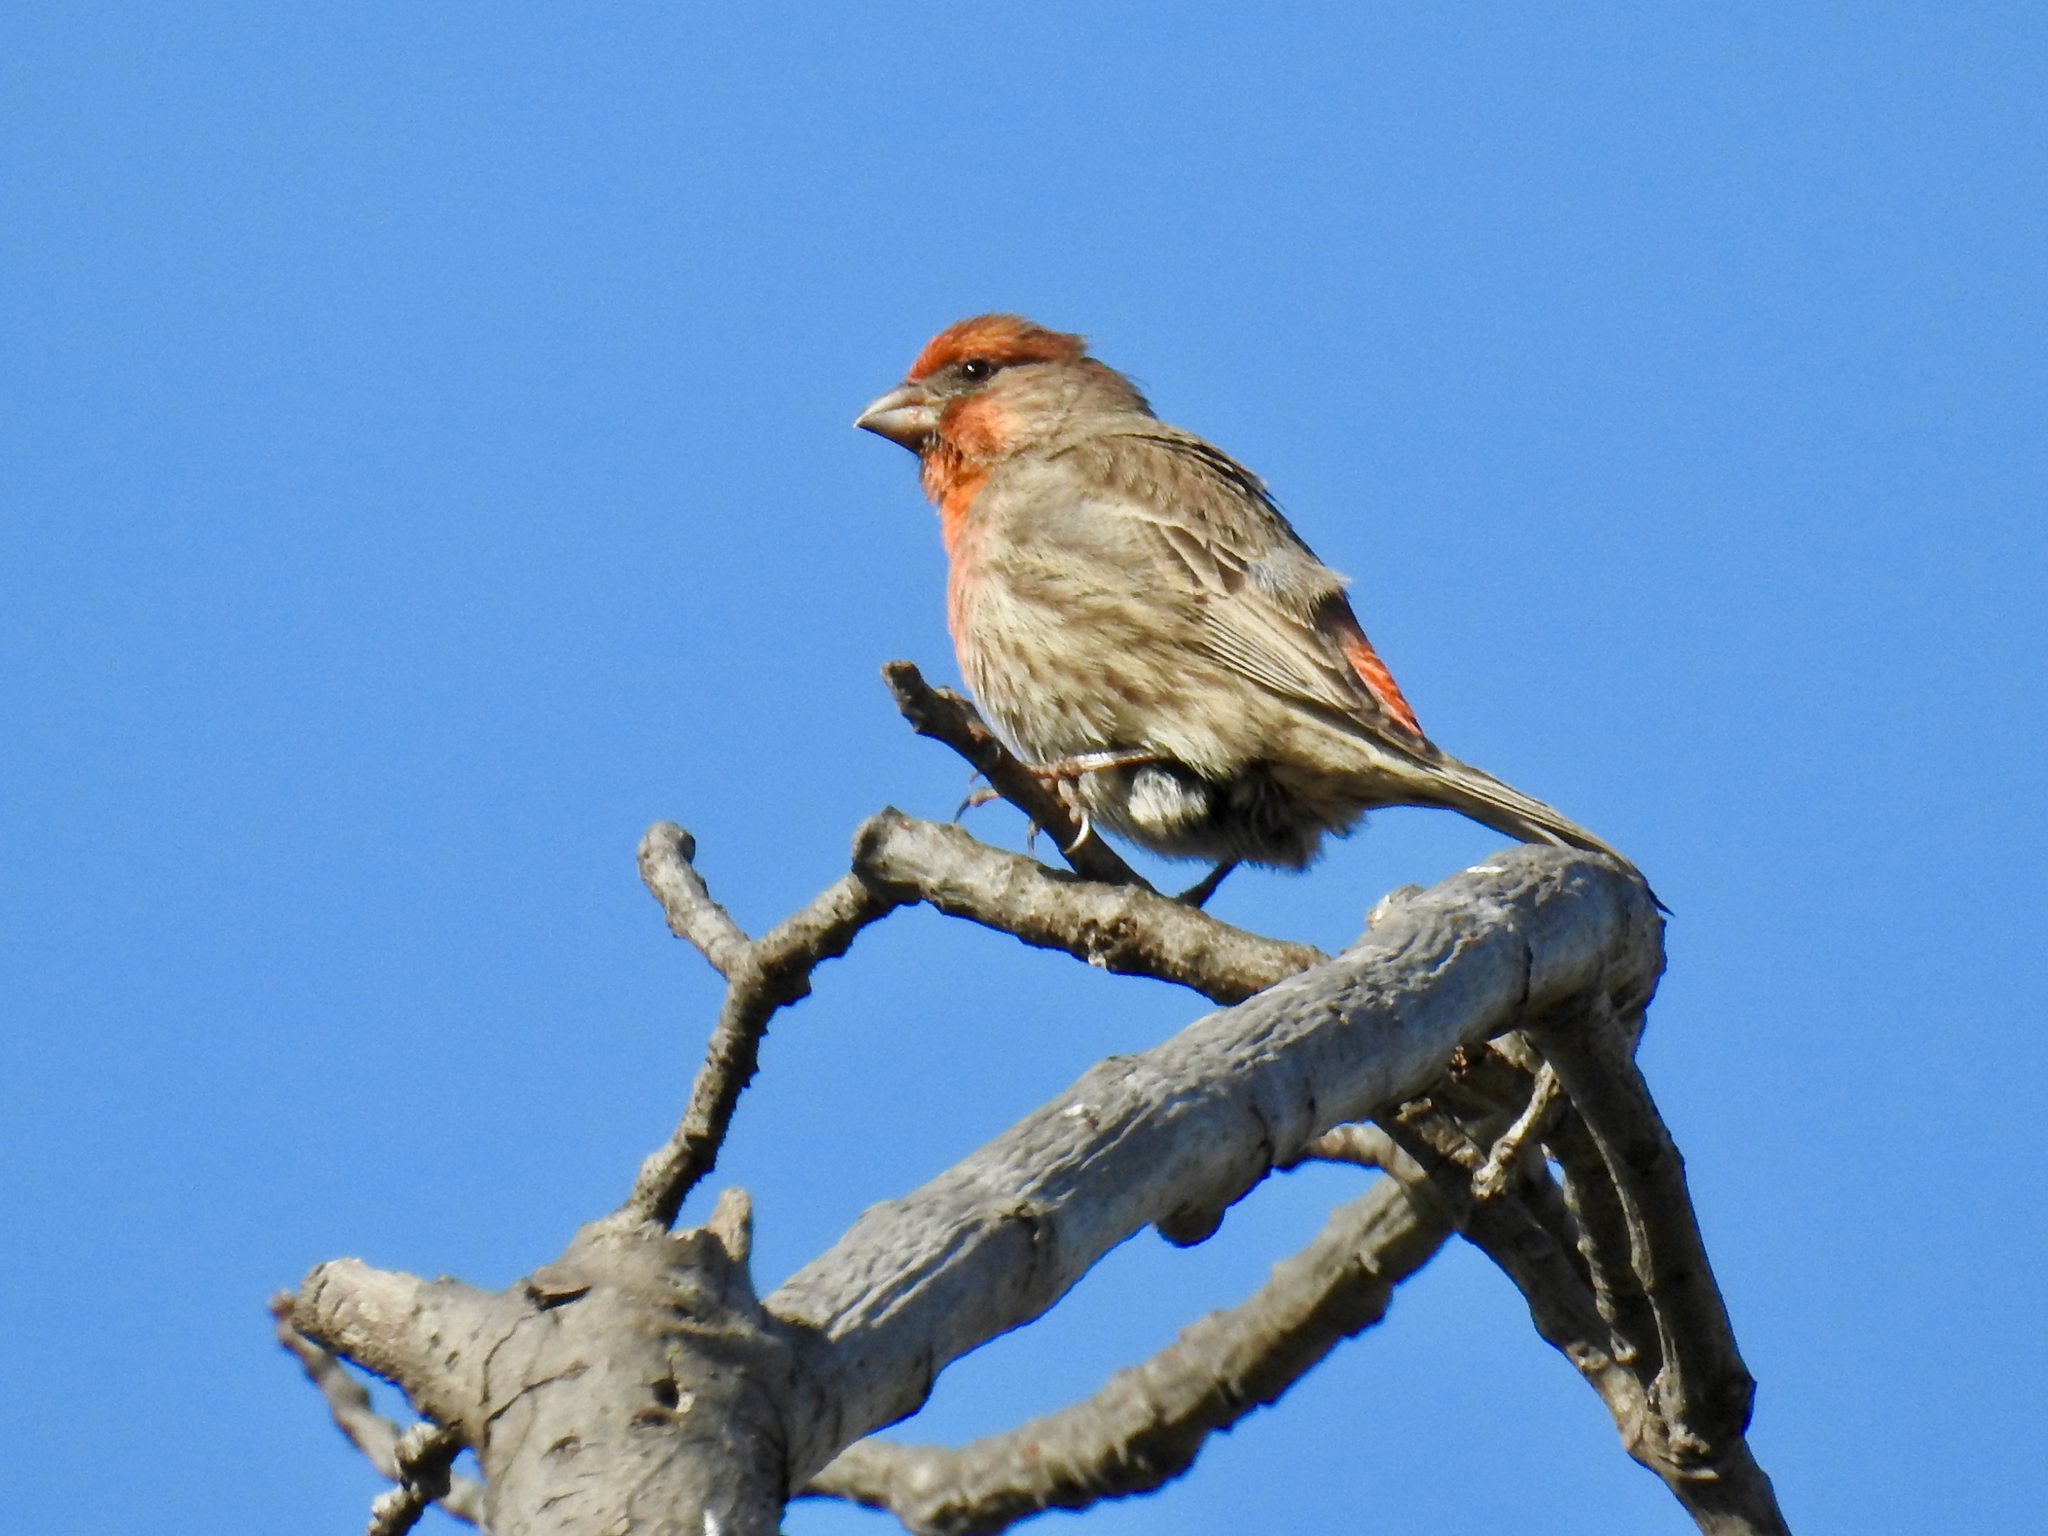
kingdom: Animalia
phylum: Chordata
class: Aves
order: Passeriformes
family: Fringillidae
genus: Haemorhous
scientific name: Haemorhous mexicanus
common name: House finch
